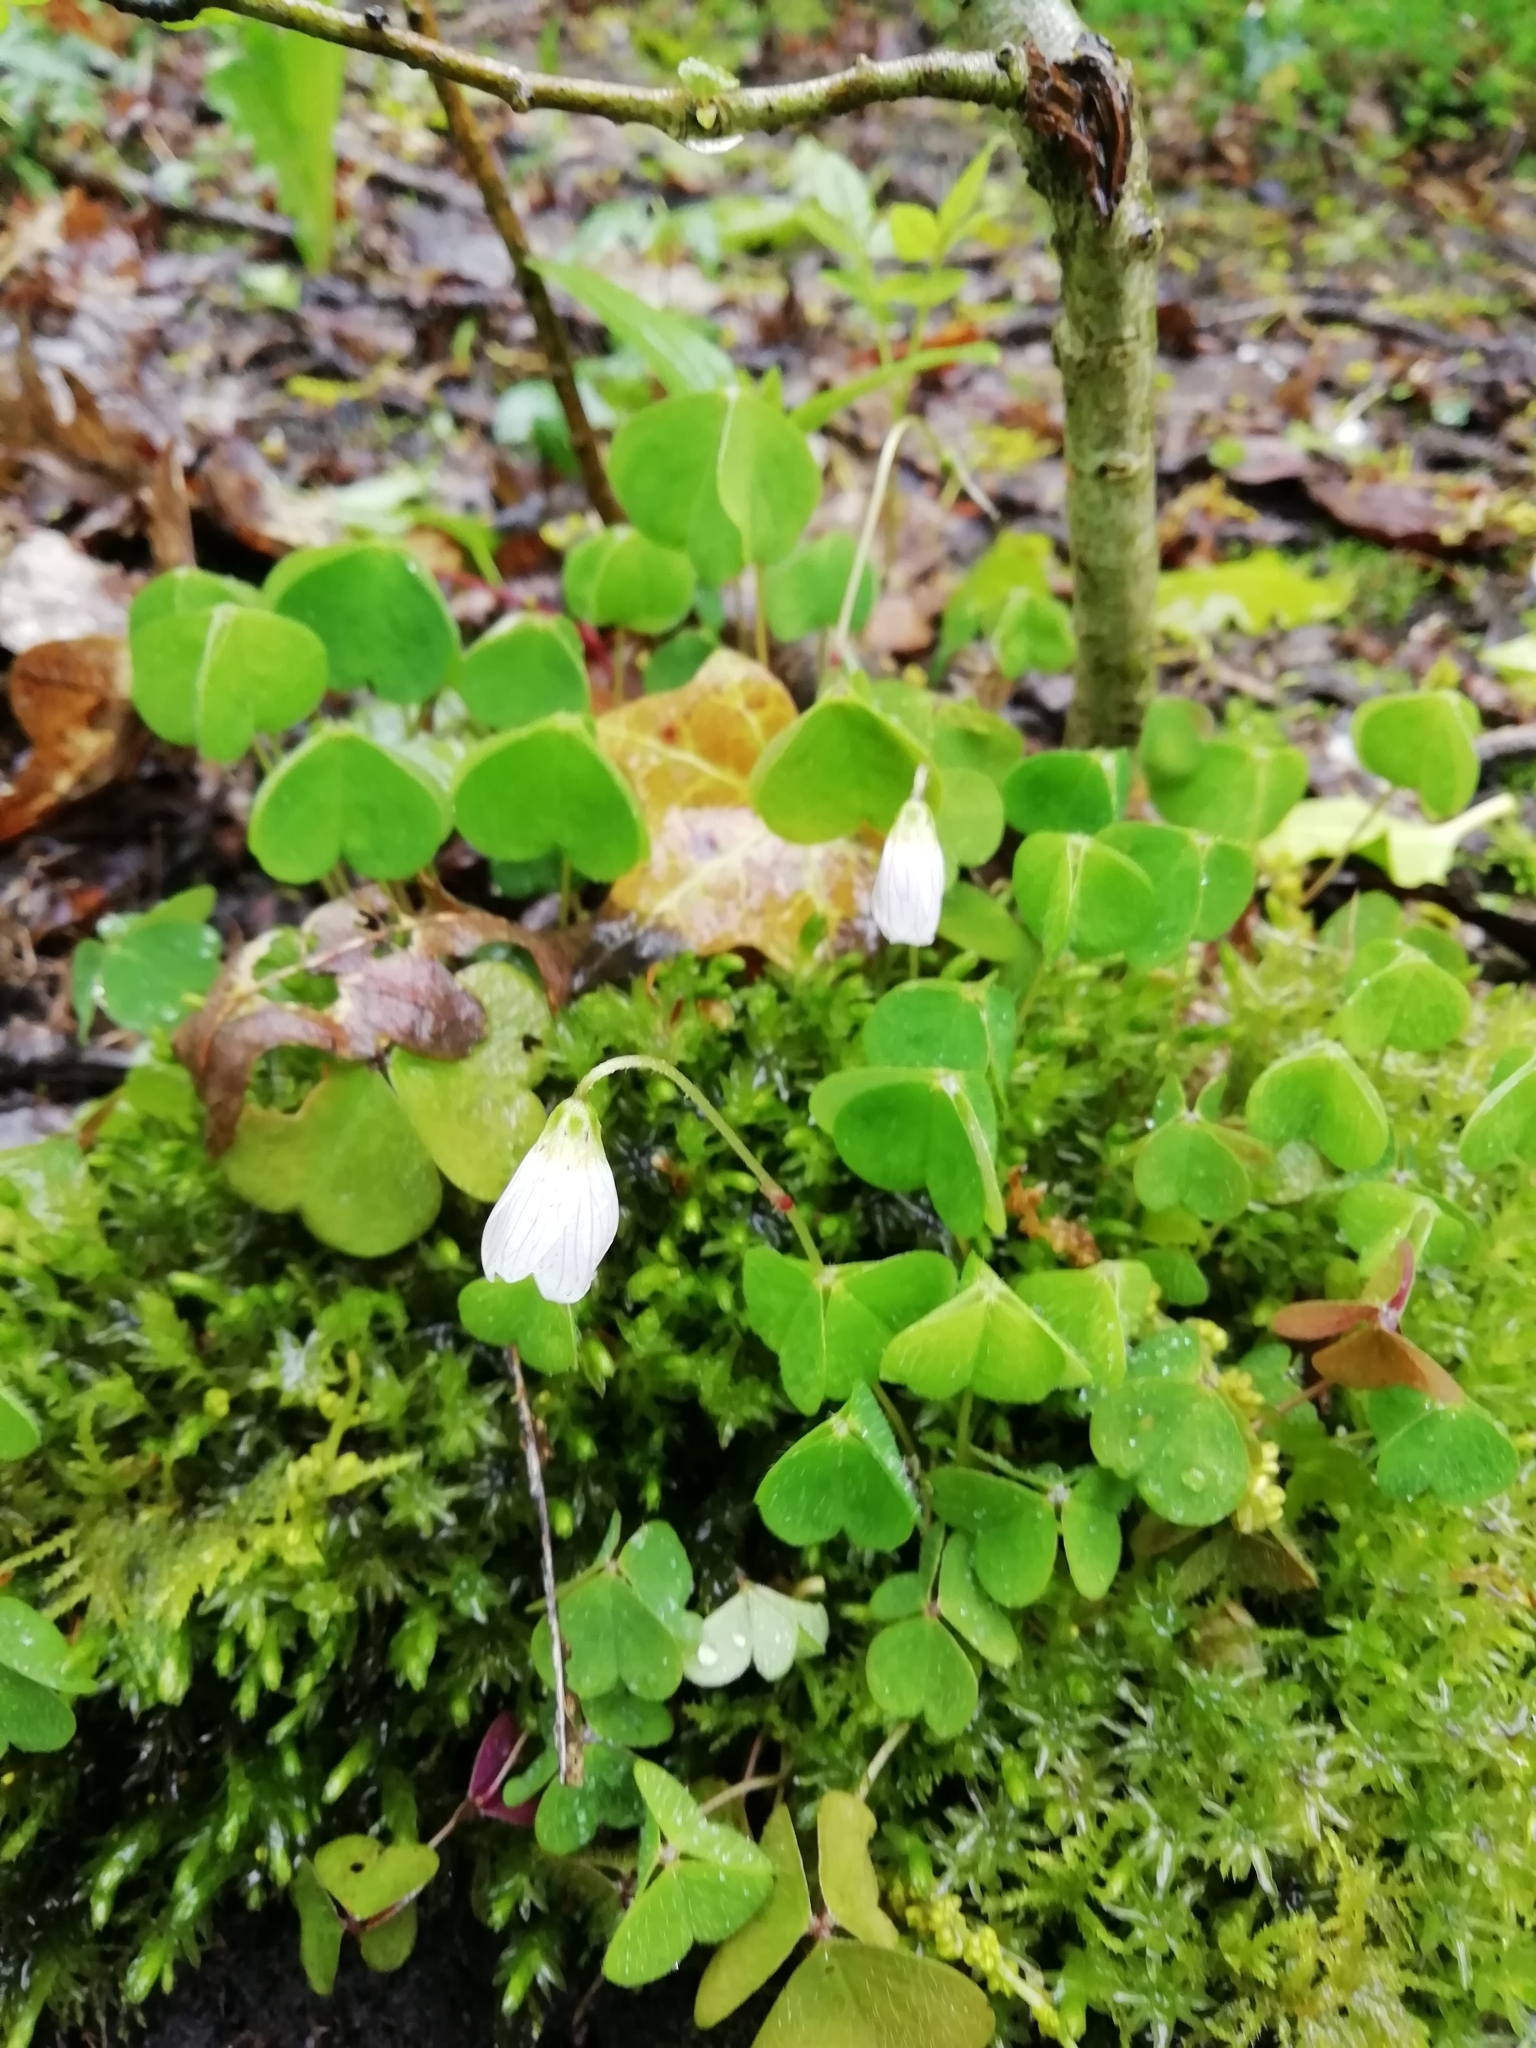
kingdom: Plantae
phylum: Tracheophyta
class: Magnoliopsida
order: Oxalidales
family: Oxalidaceae
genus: Oxalis
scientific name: Oxalis acetosella
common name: Wood-sorrel
